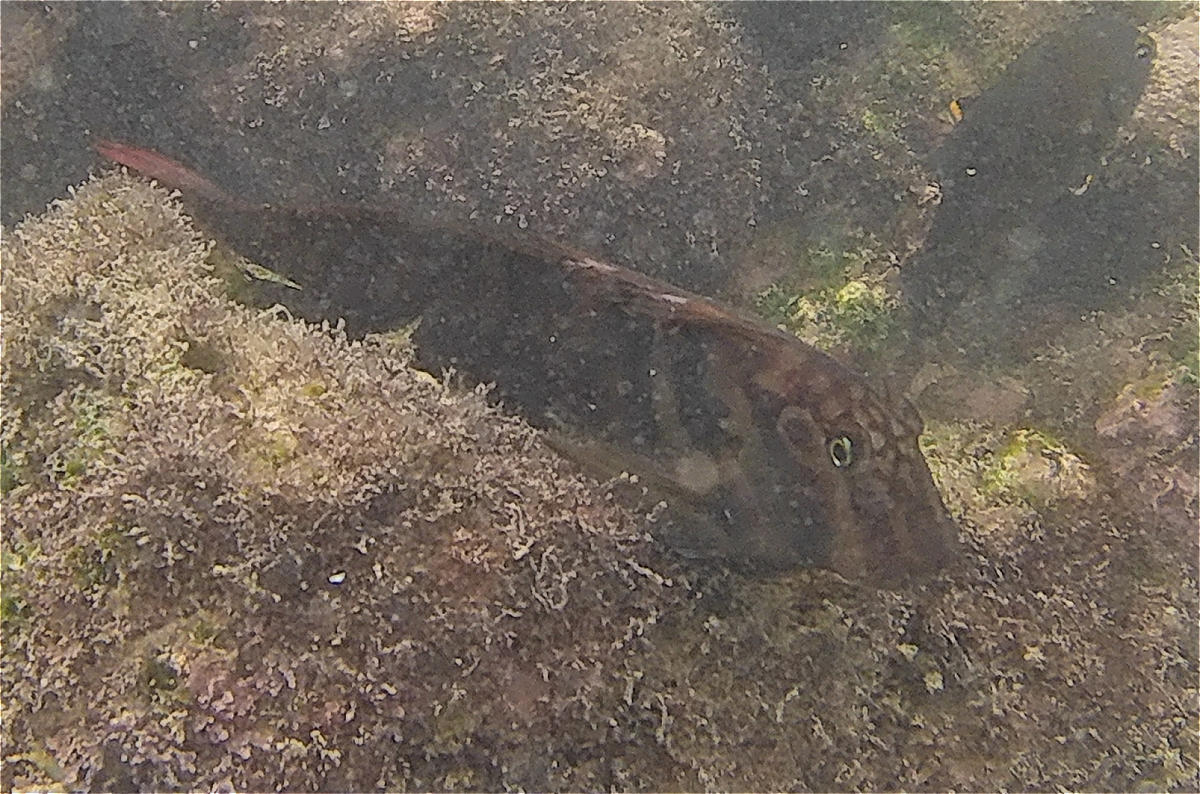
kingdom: Animalia
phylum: Chordata
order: Perciformes
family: Blenniidae
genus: Ophioblennius
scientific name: Ophioblennius steindachneri
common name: Panamic fanged blenny
